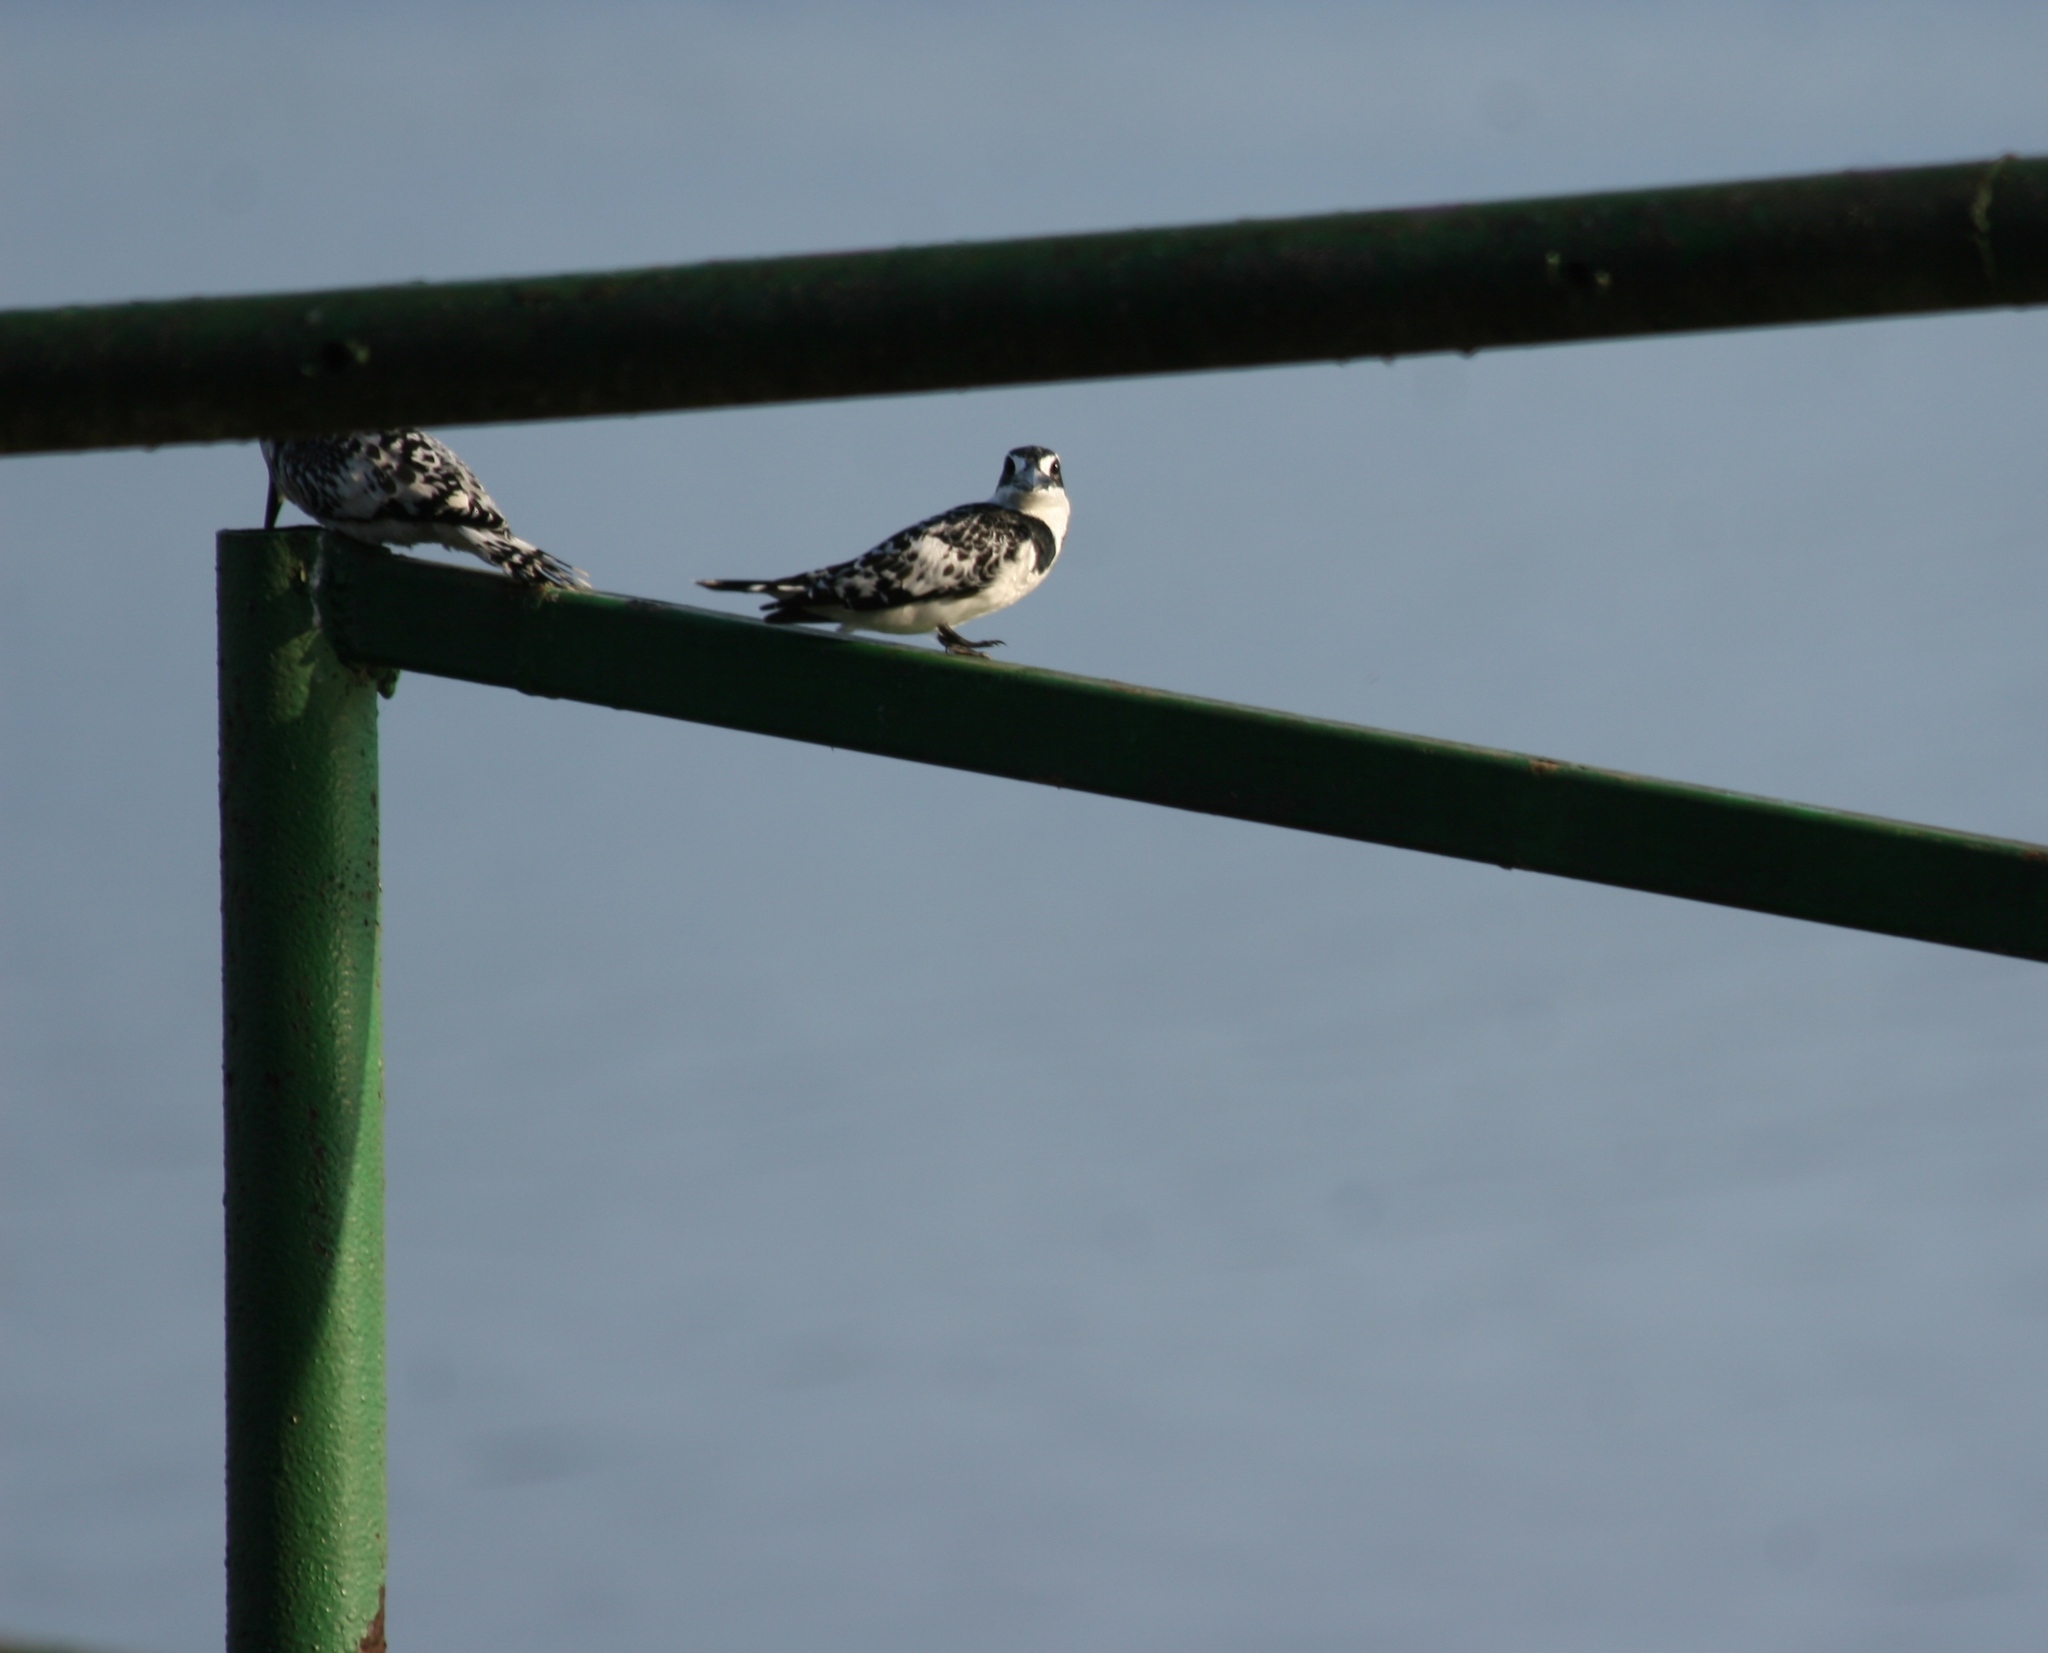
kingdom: Animalia
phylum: Chordata
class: Aves
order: Coraciiformes
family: Alcedinidae
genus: Ceryle
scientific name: Ceryle rudis
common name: Pied kingfisher
